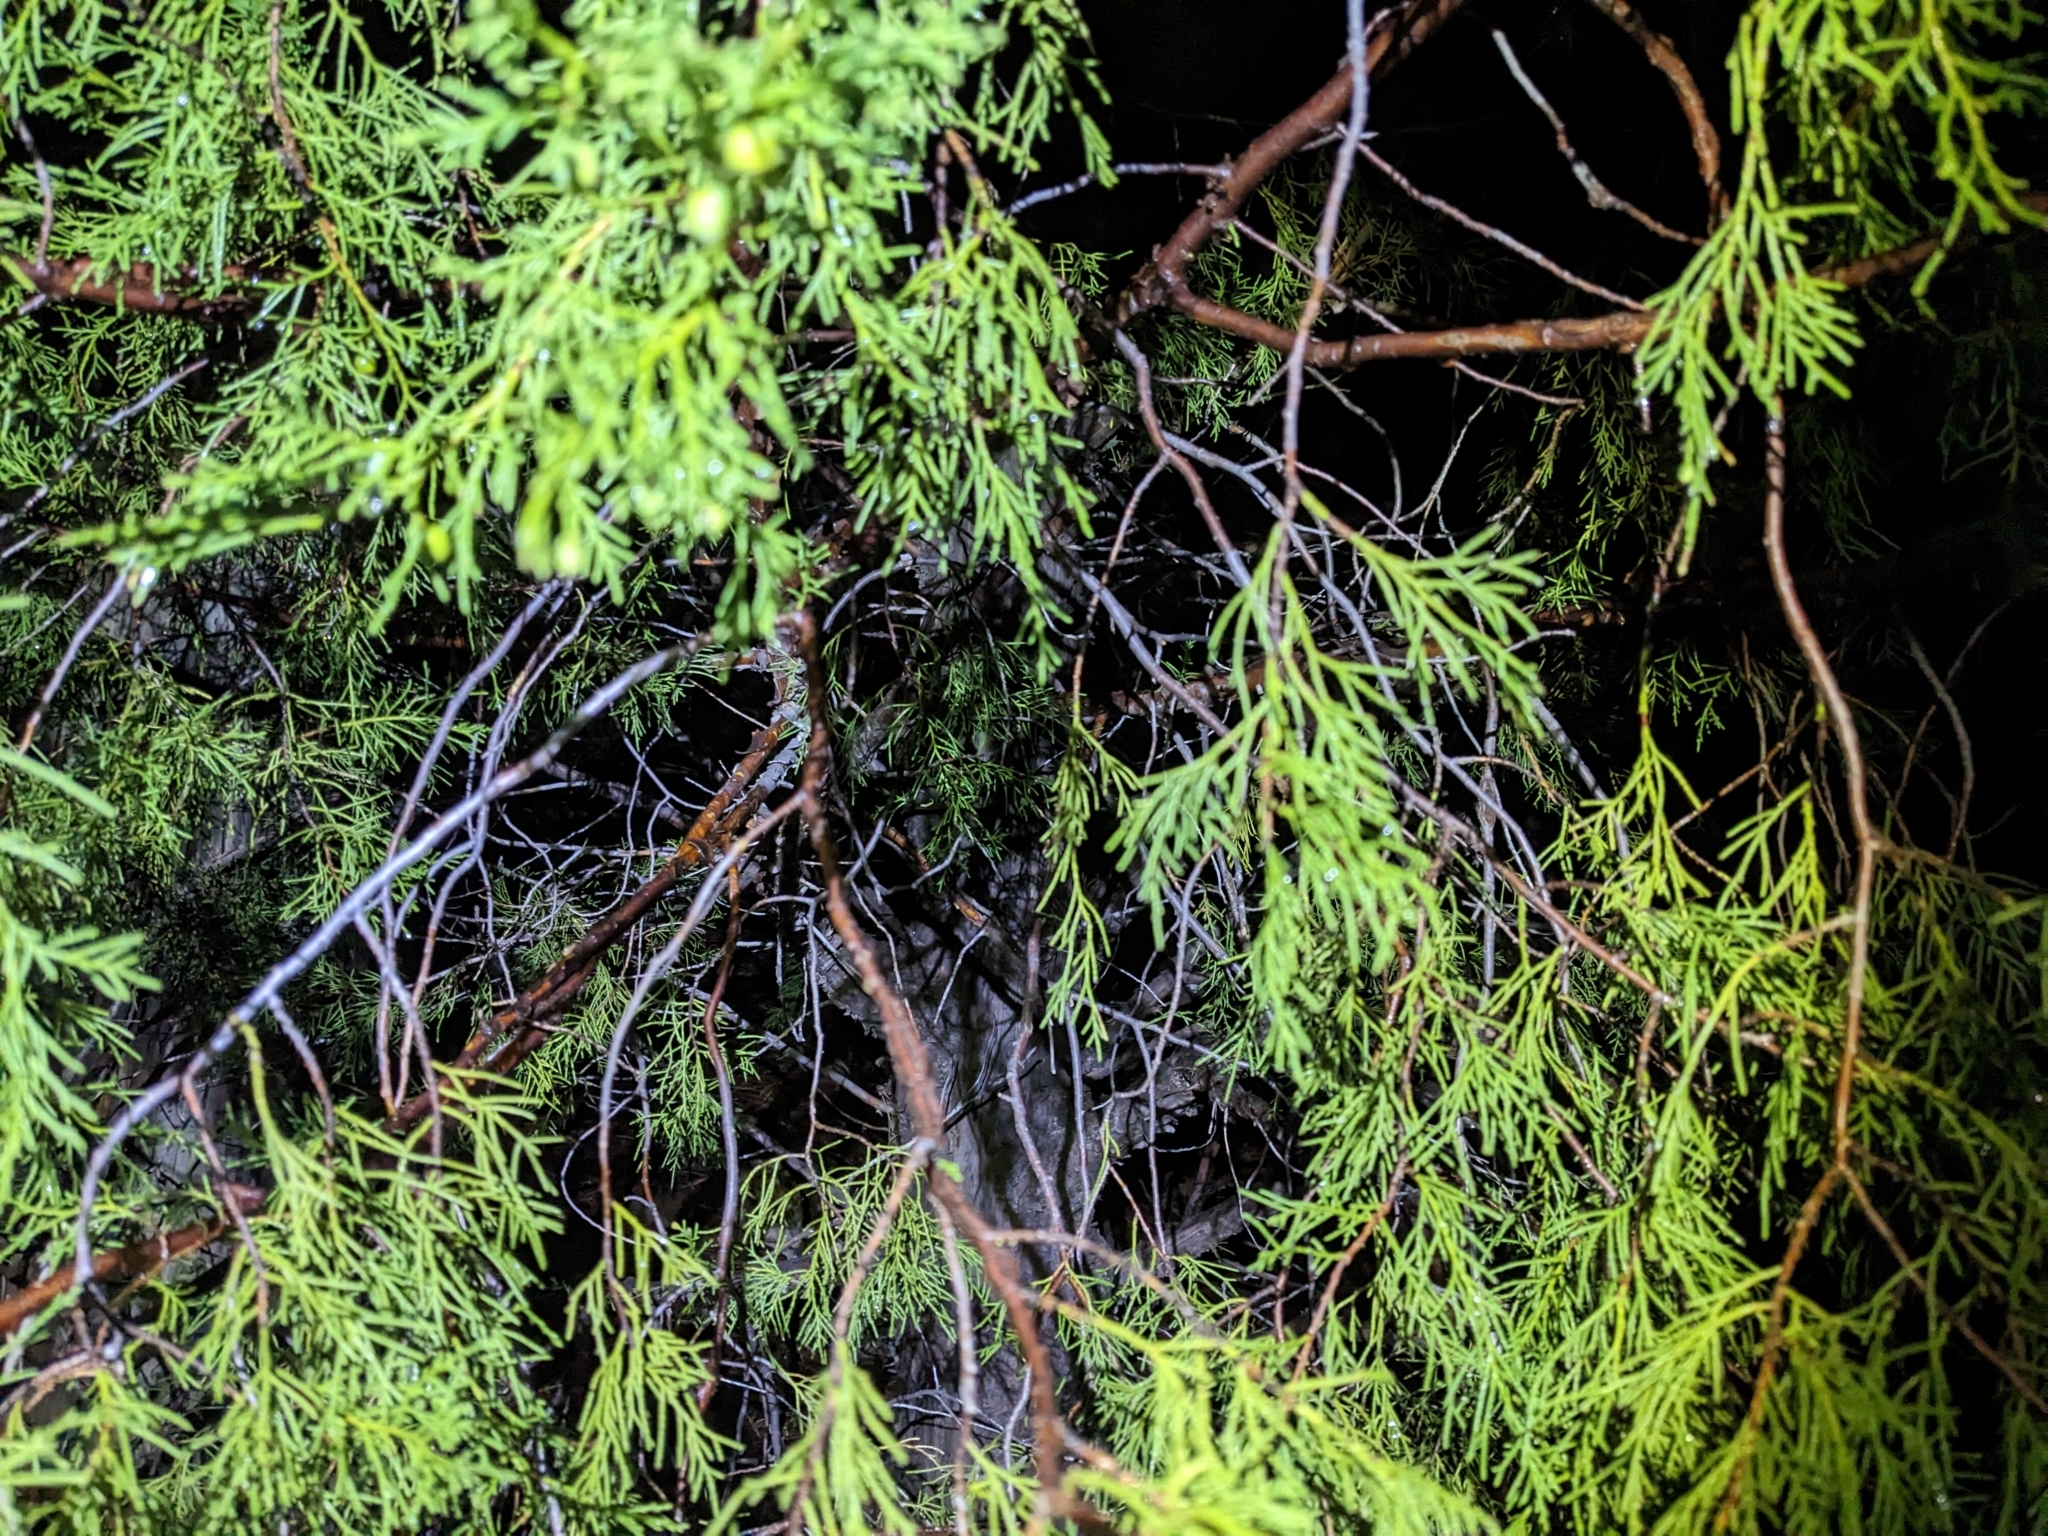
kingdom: Plantae
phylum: Tracheophyta
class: Pinopsida
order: Pinales
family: Cupressaceae
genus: Juniperus
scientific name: Juniperus scopulorum
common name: Rocky mountain juniper
